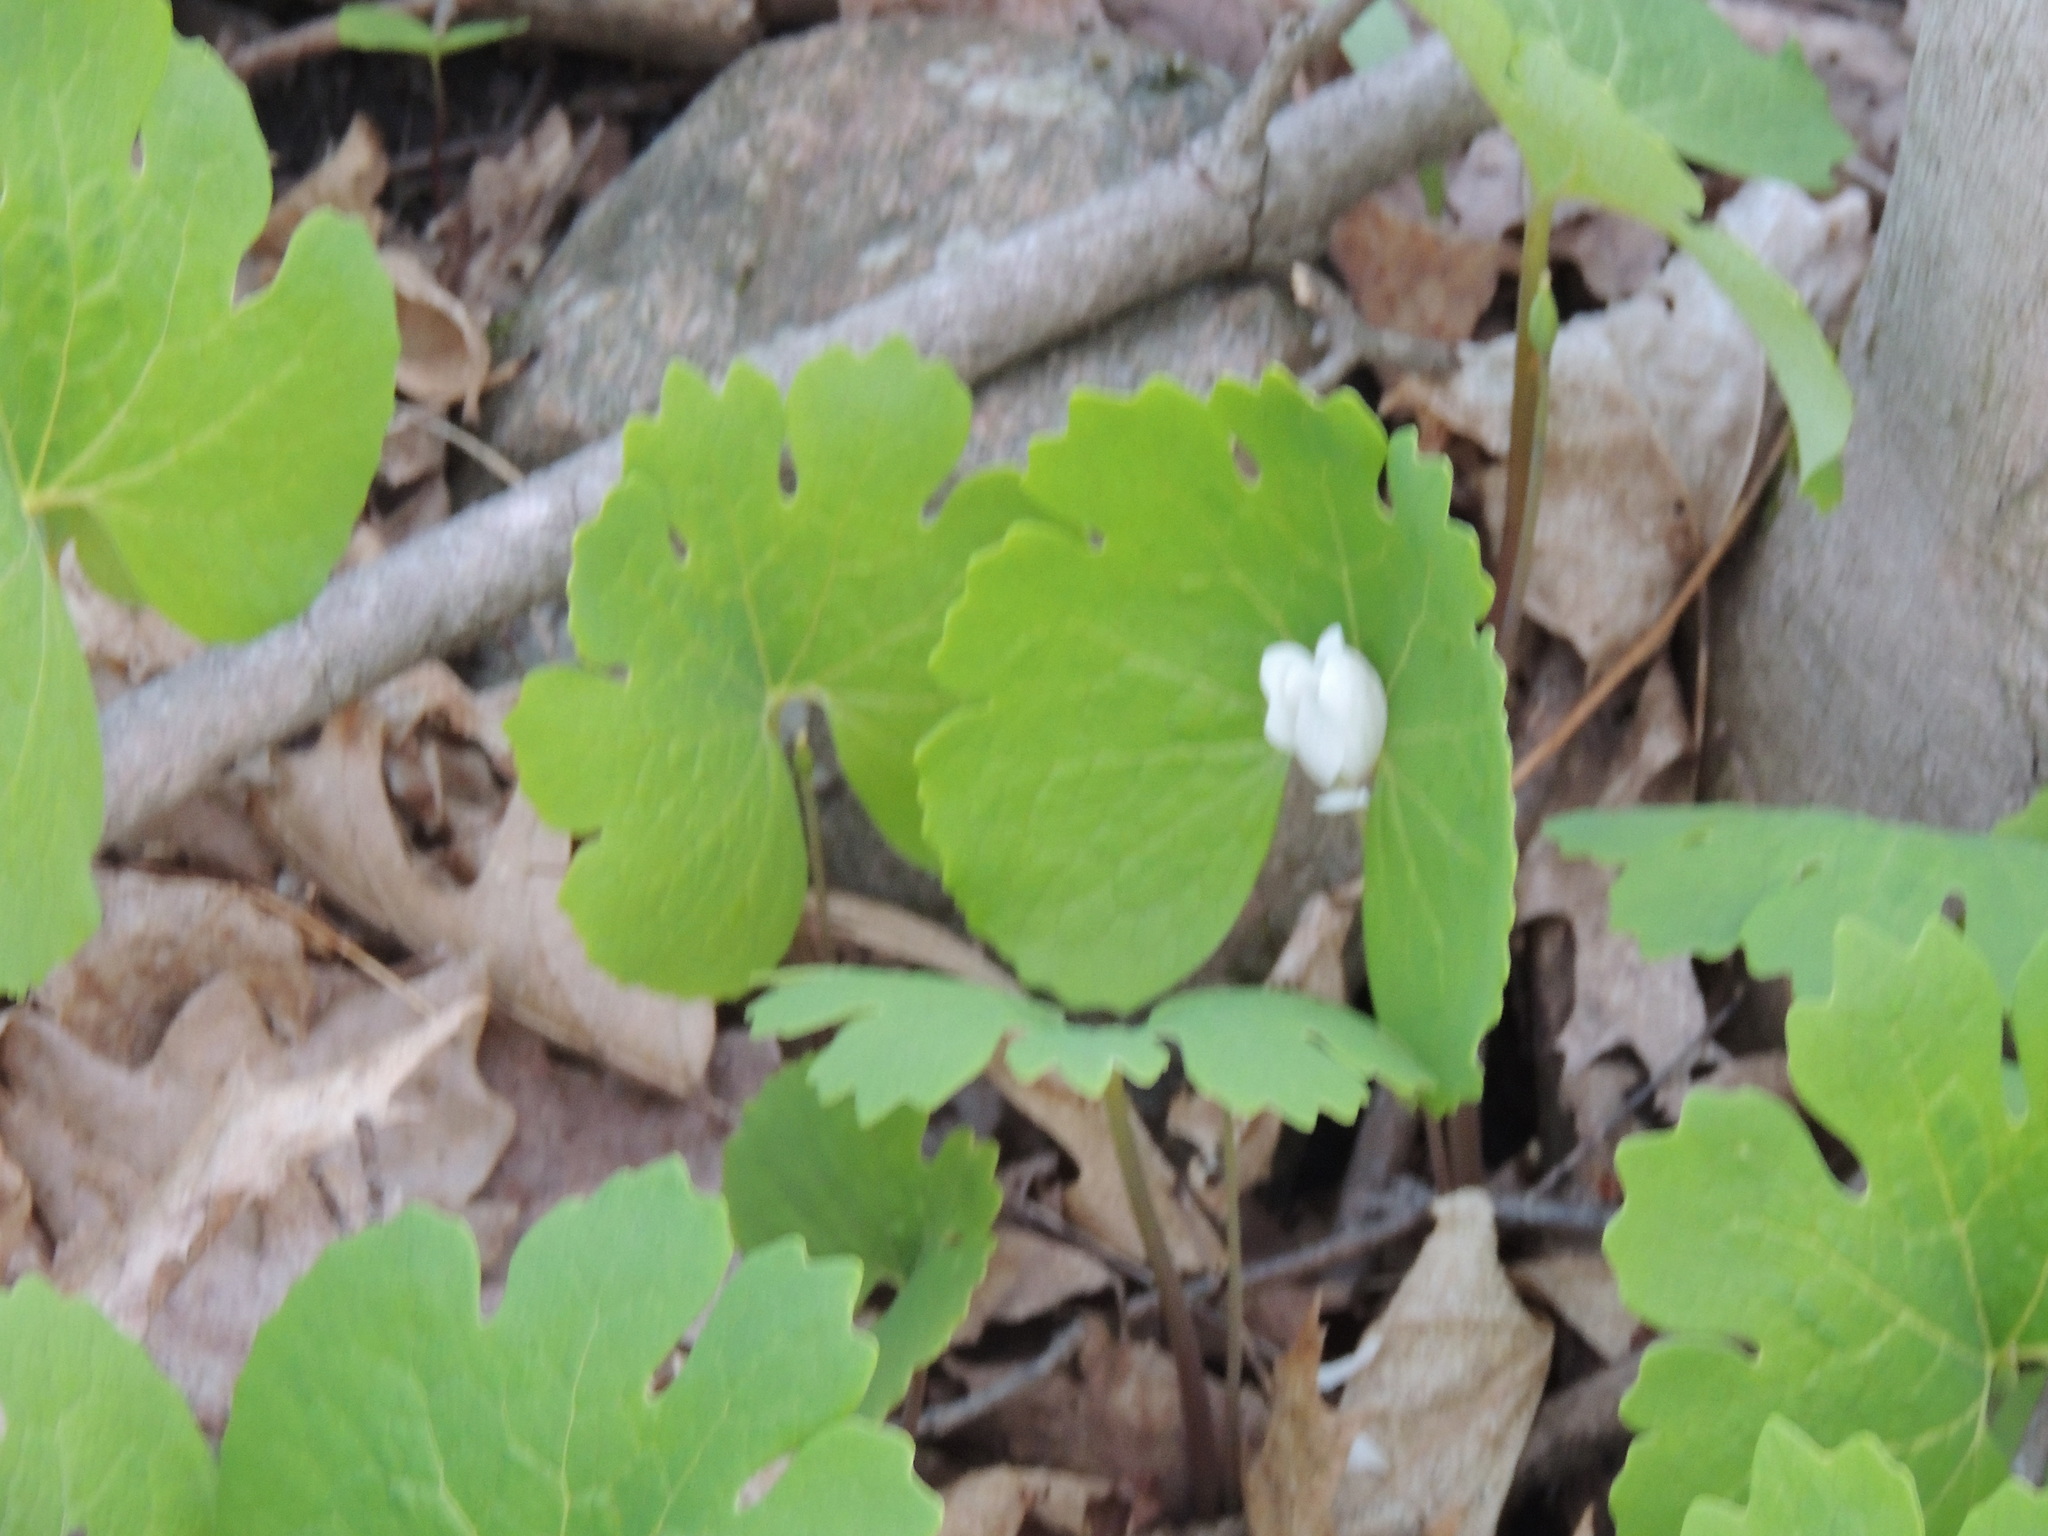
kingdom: Plantae
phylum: Tracheophyta
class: Magnoliopsida
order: Ranunculales
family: Papaveraceae
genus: Sanguinaria
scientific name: Sanguinaria canadensis
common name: Bloodroot
